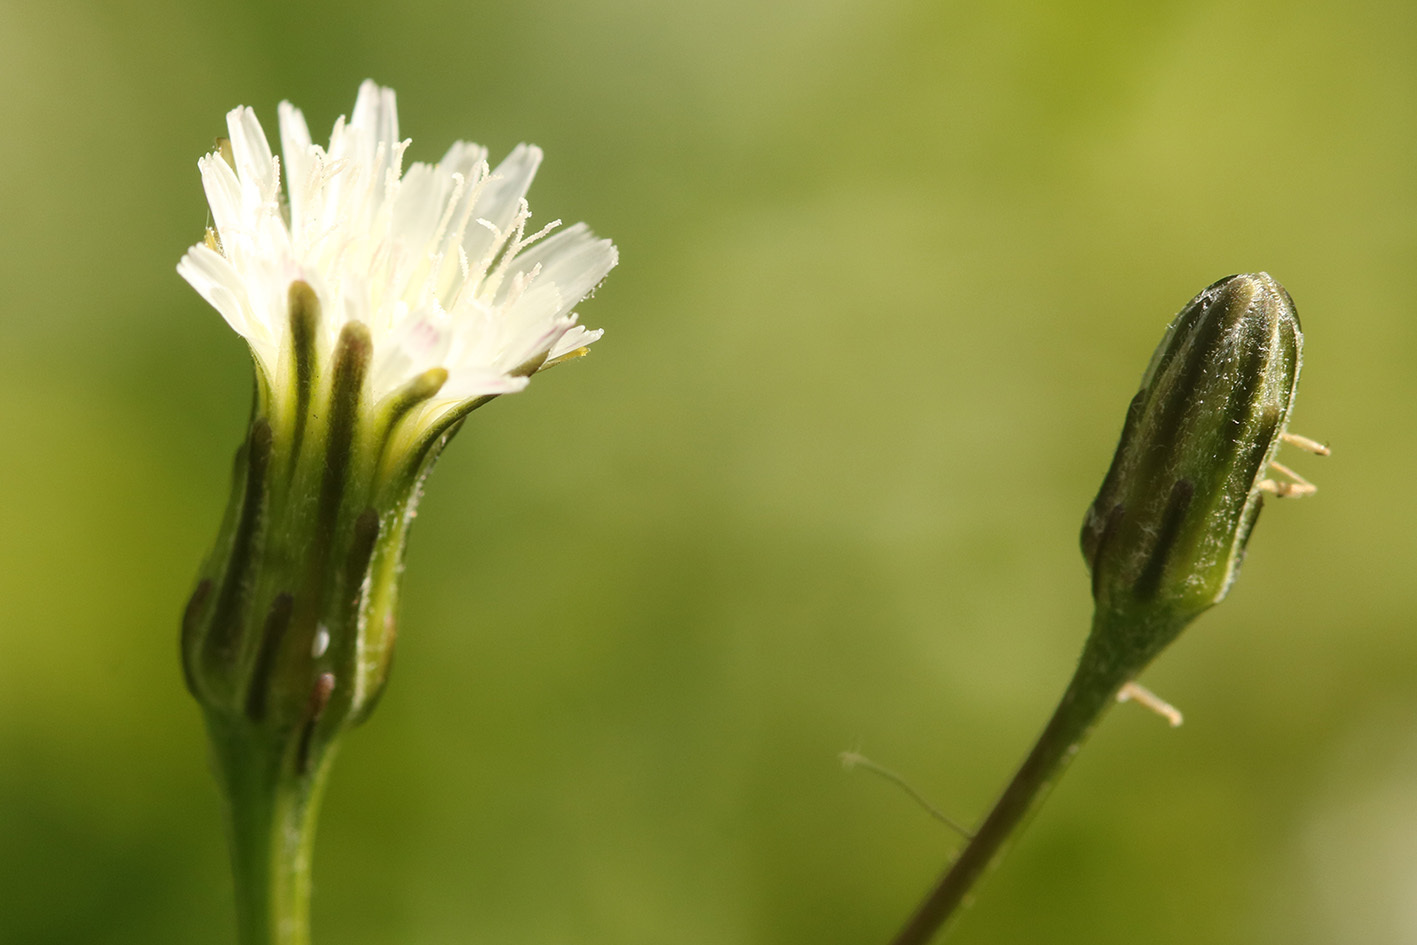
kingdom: Plantae
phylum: Tracheophyta
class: Magnoliopsida
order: Asterales
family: Asteraceae
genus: Hypochaeris
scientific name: Hypochaeris albiflora
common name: White flatweed
